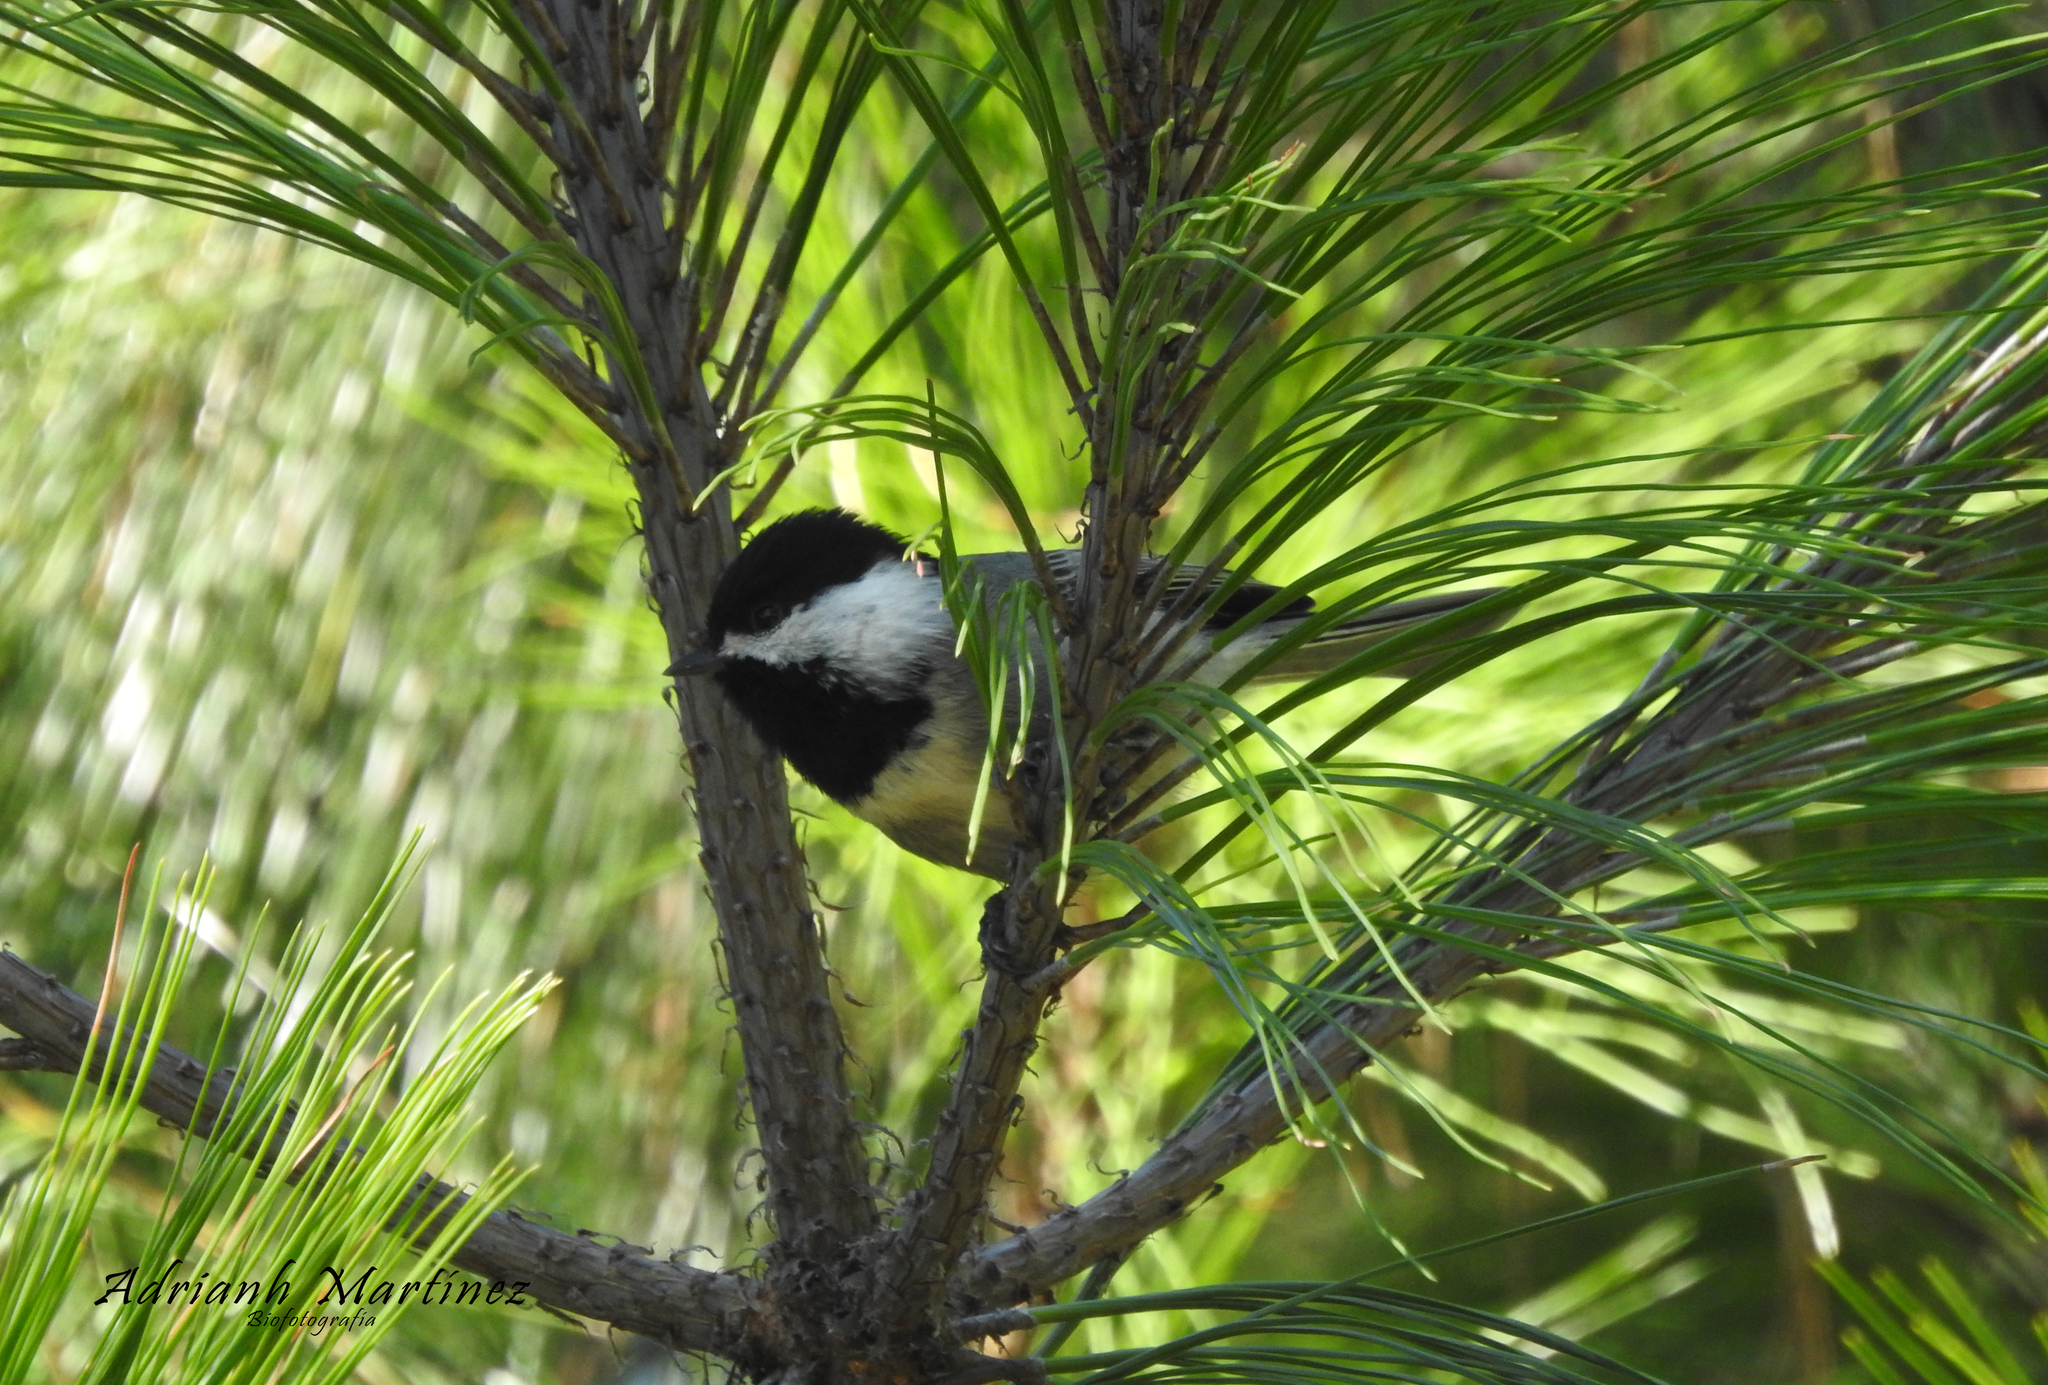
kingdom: Animalia
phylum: Chordata
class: Aves
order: Passeriformes
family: Paridae
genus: Poecile
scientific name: Poecile sclateri
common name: Mexican chickadee
